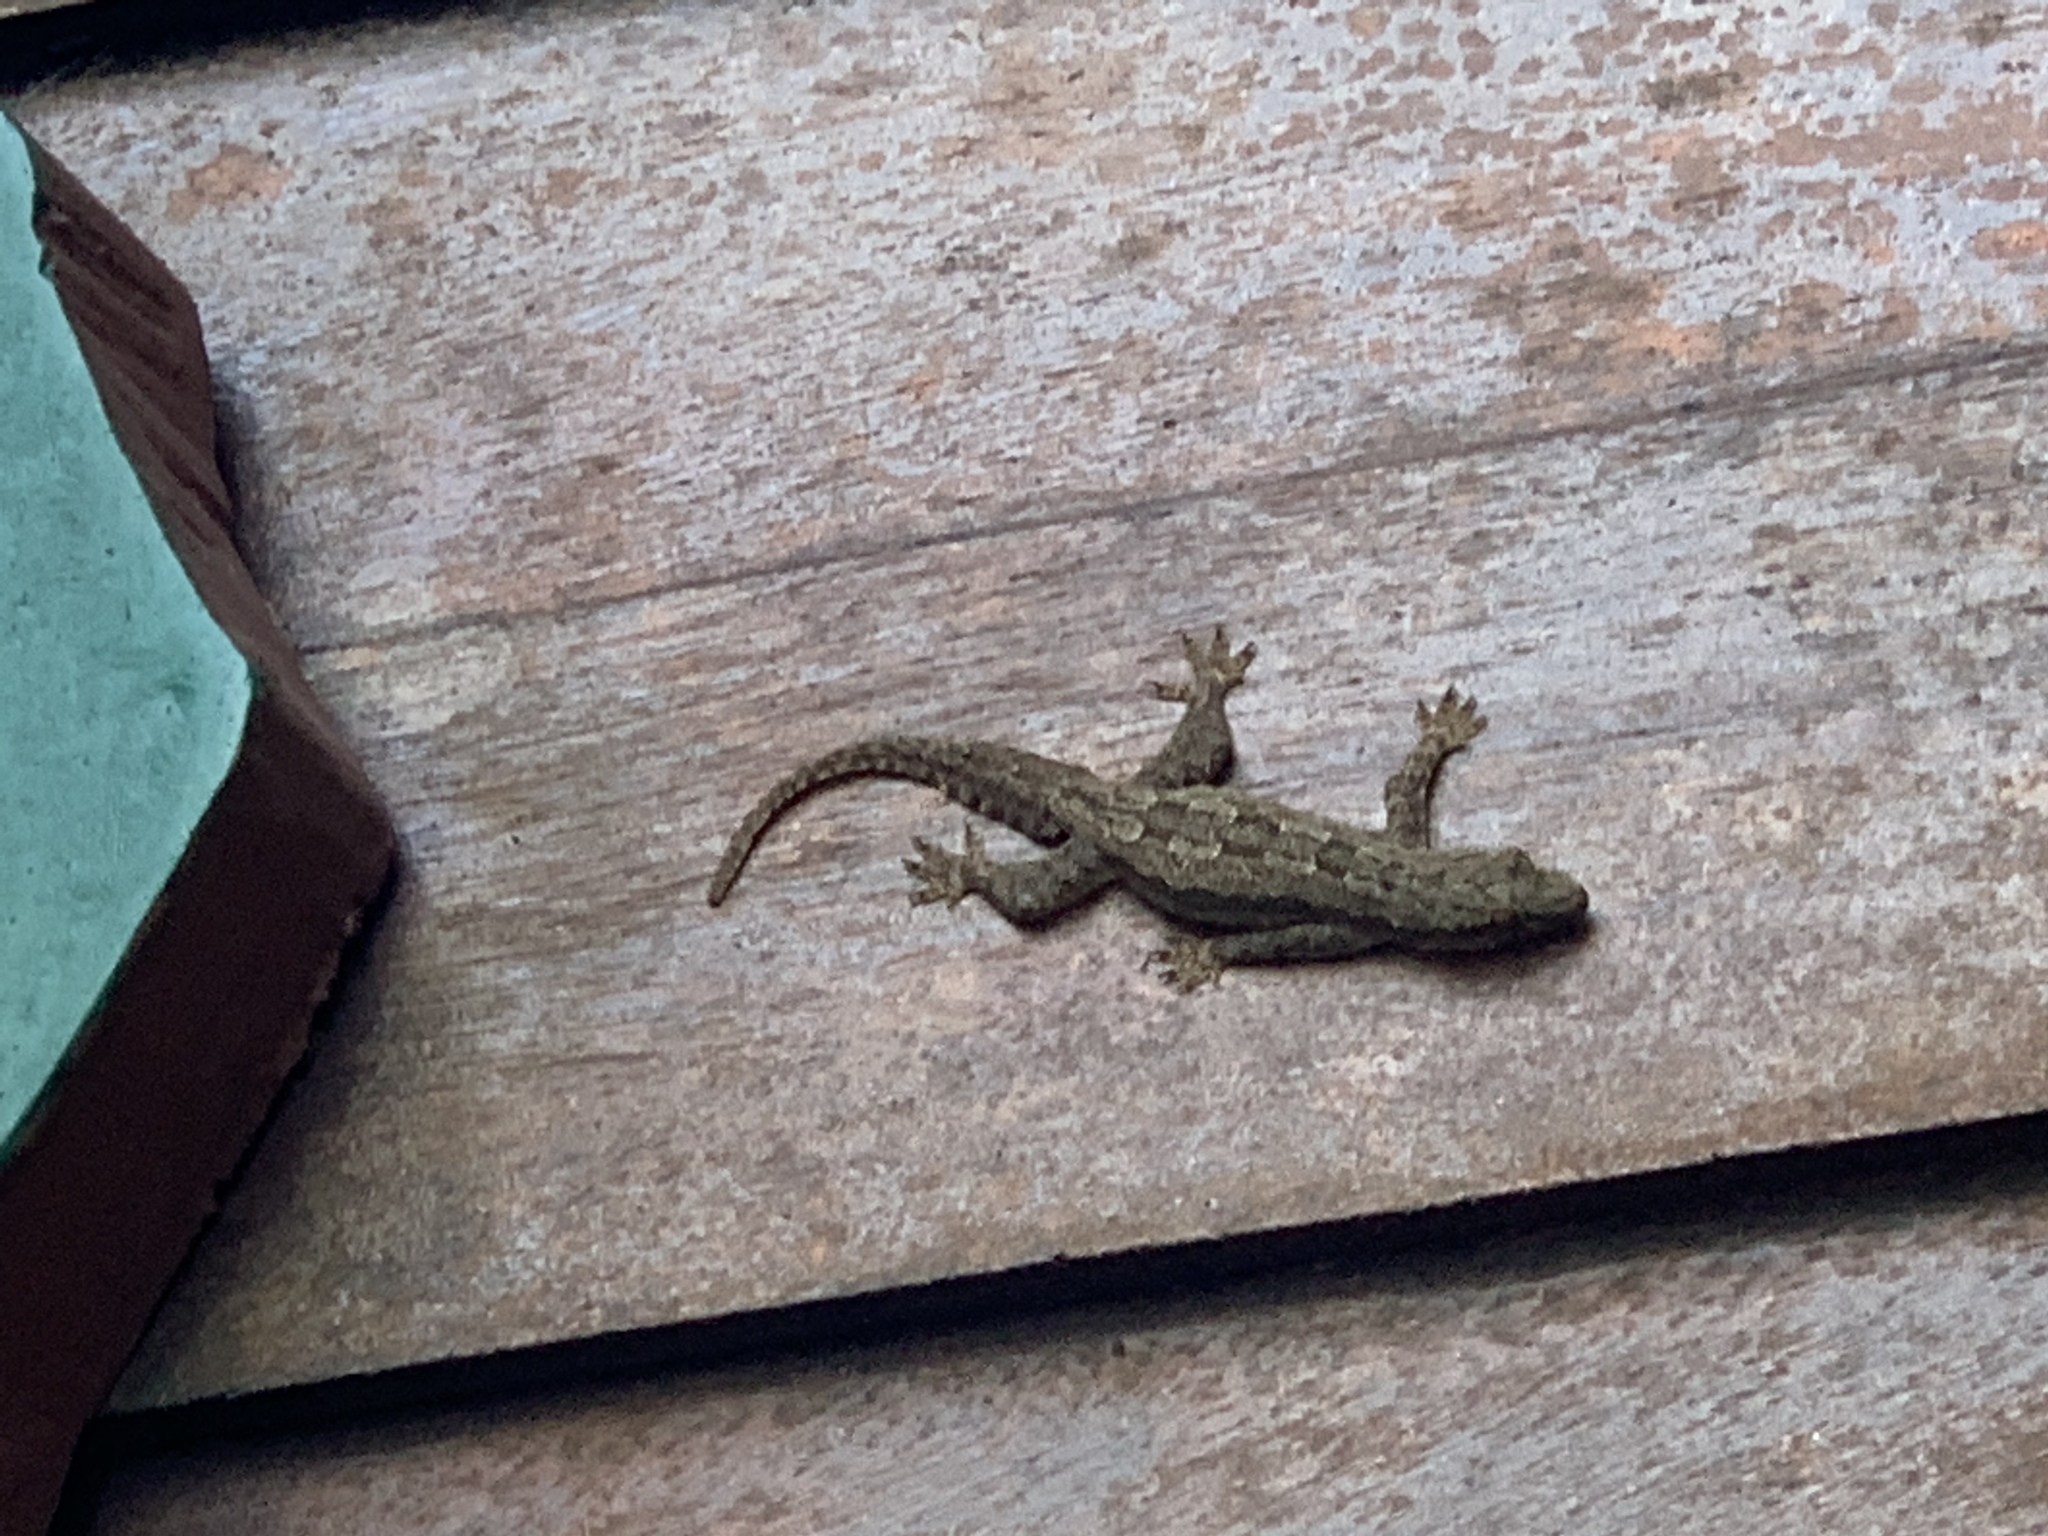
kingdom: Animalia
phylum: Chordata
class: Squamata
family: Gekkonidae
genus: Hemidactylus
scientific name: Hemidactylus platyurus
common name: Flat-tailed house gecko
